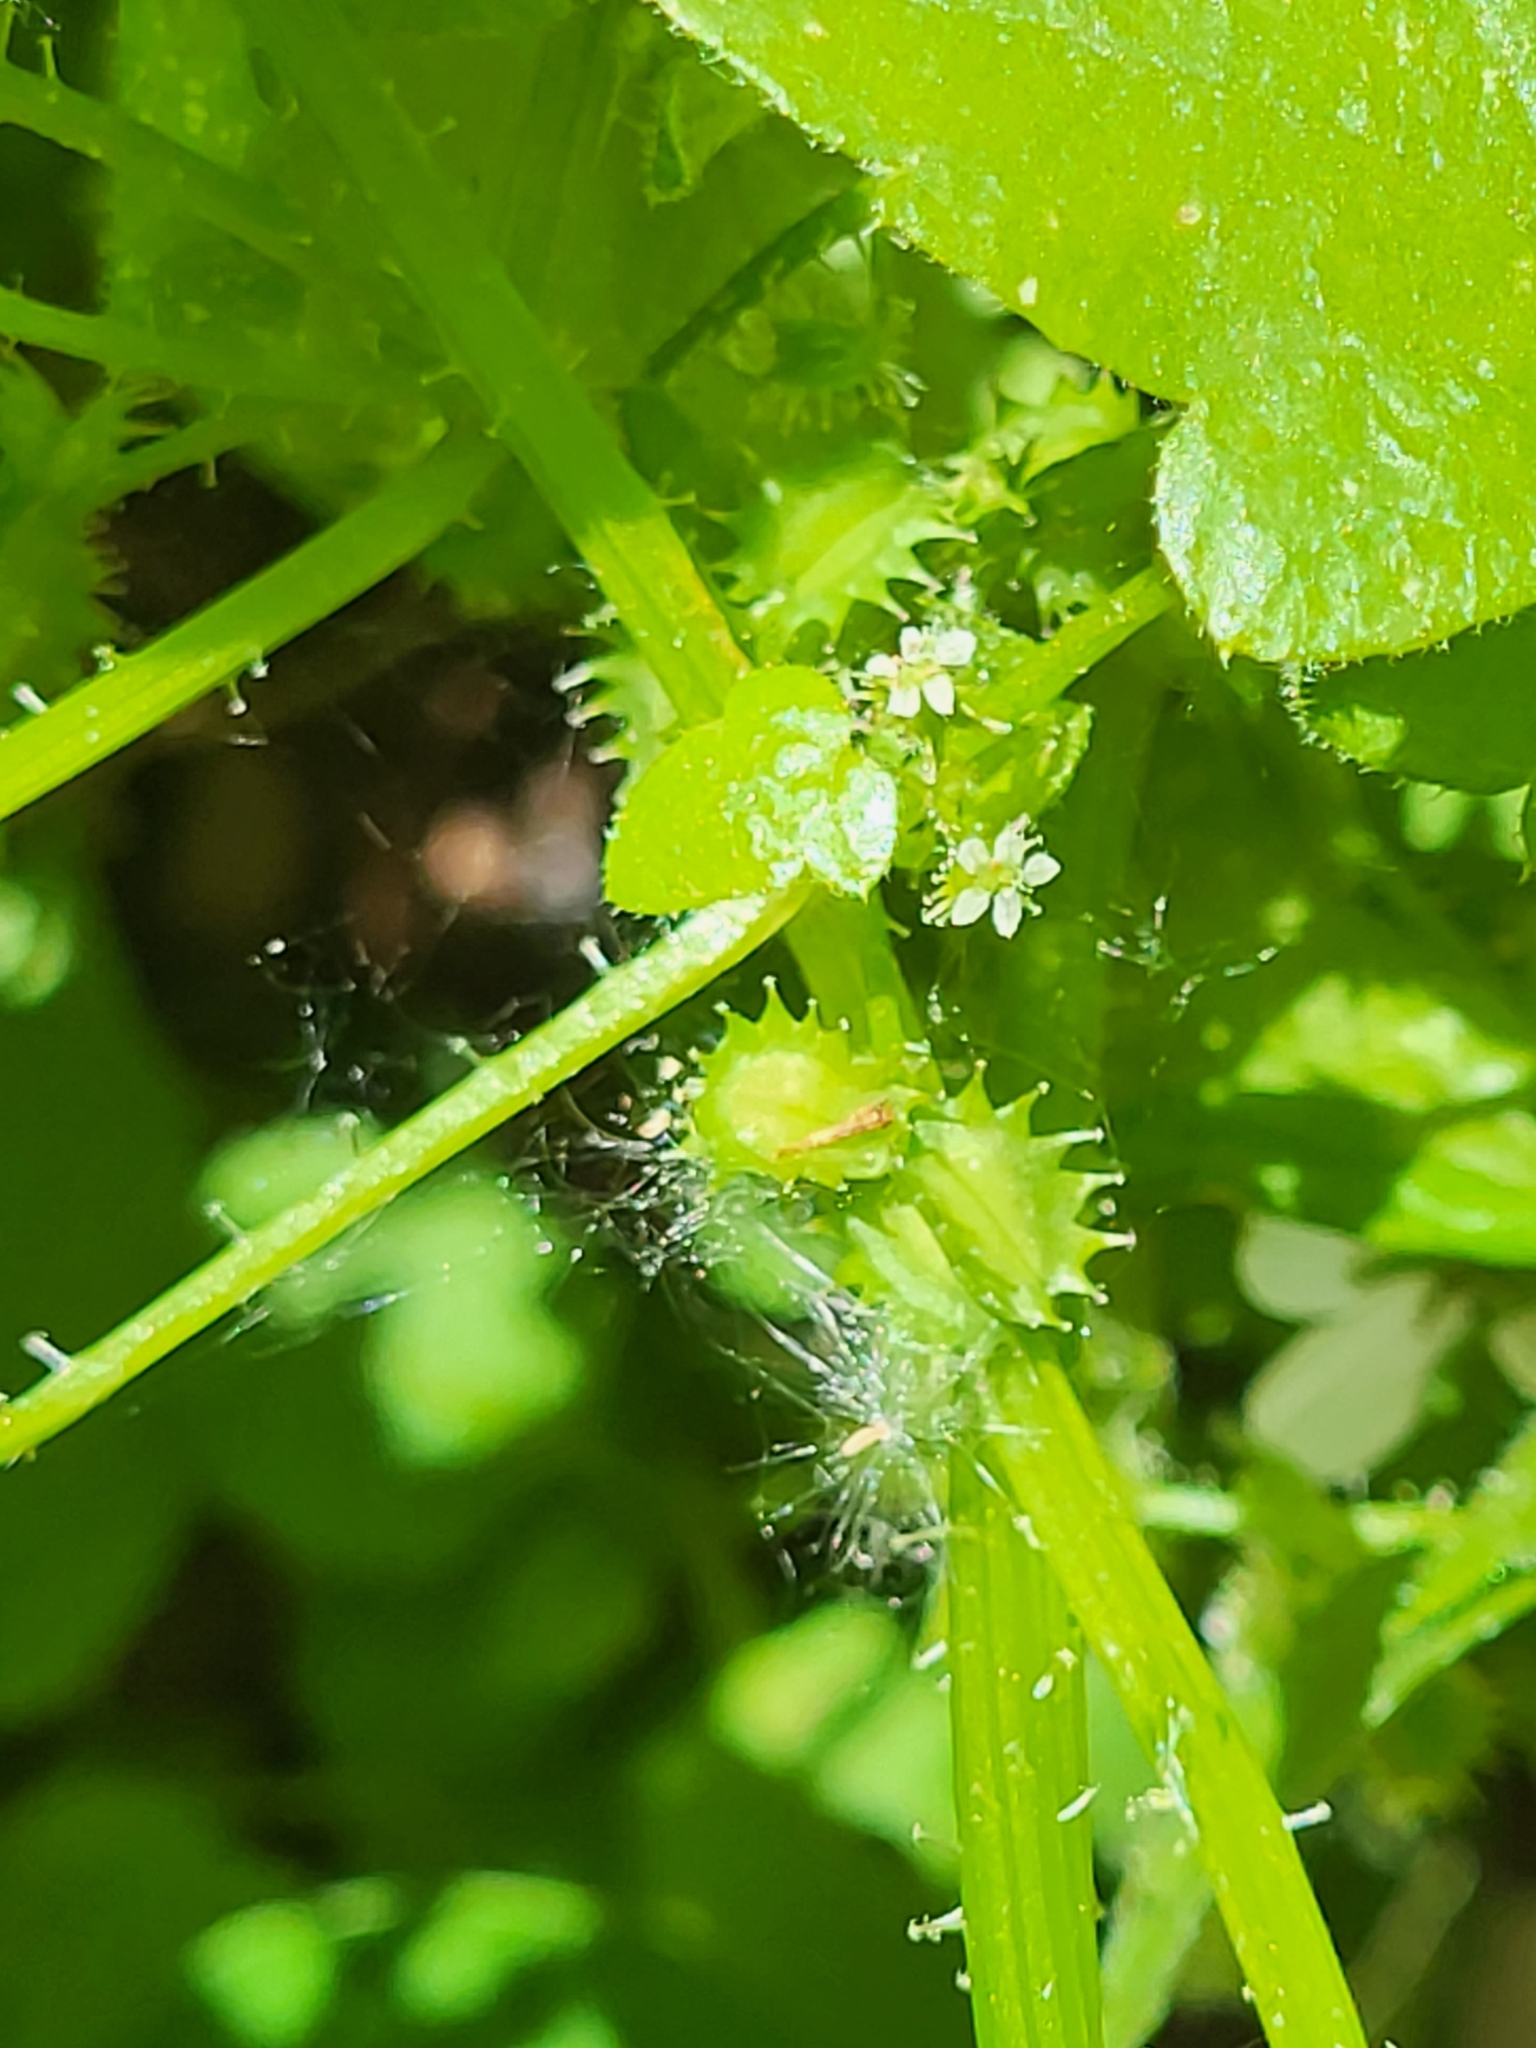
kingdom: Plantae
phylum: Tracheophyta
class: Magnoliopsida
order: Apiales
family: Apiaceae
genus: Drusa
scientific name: Drusa glandulosa
